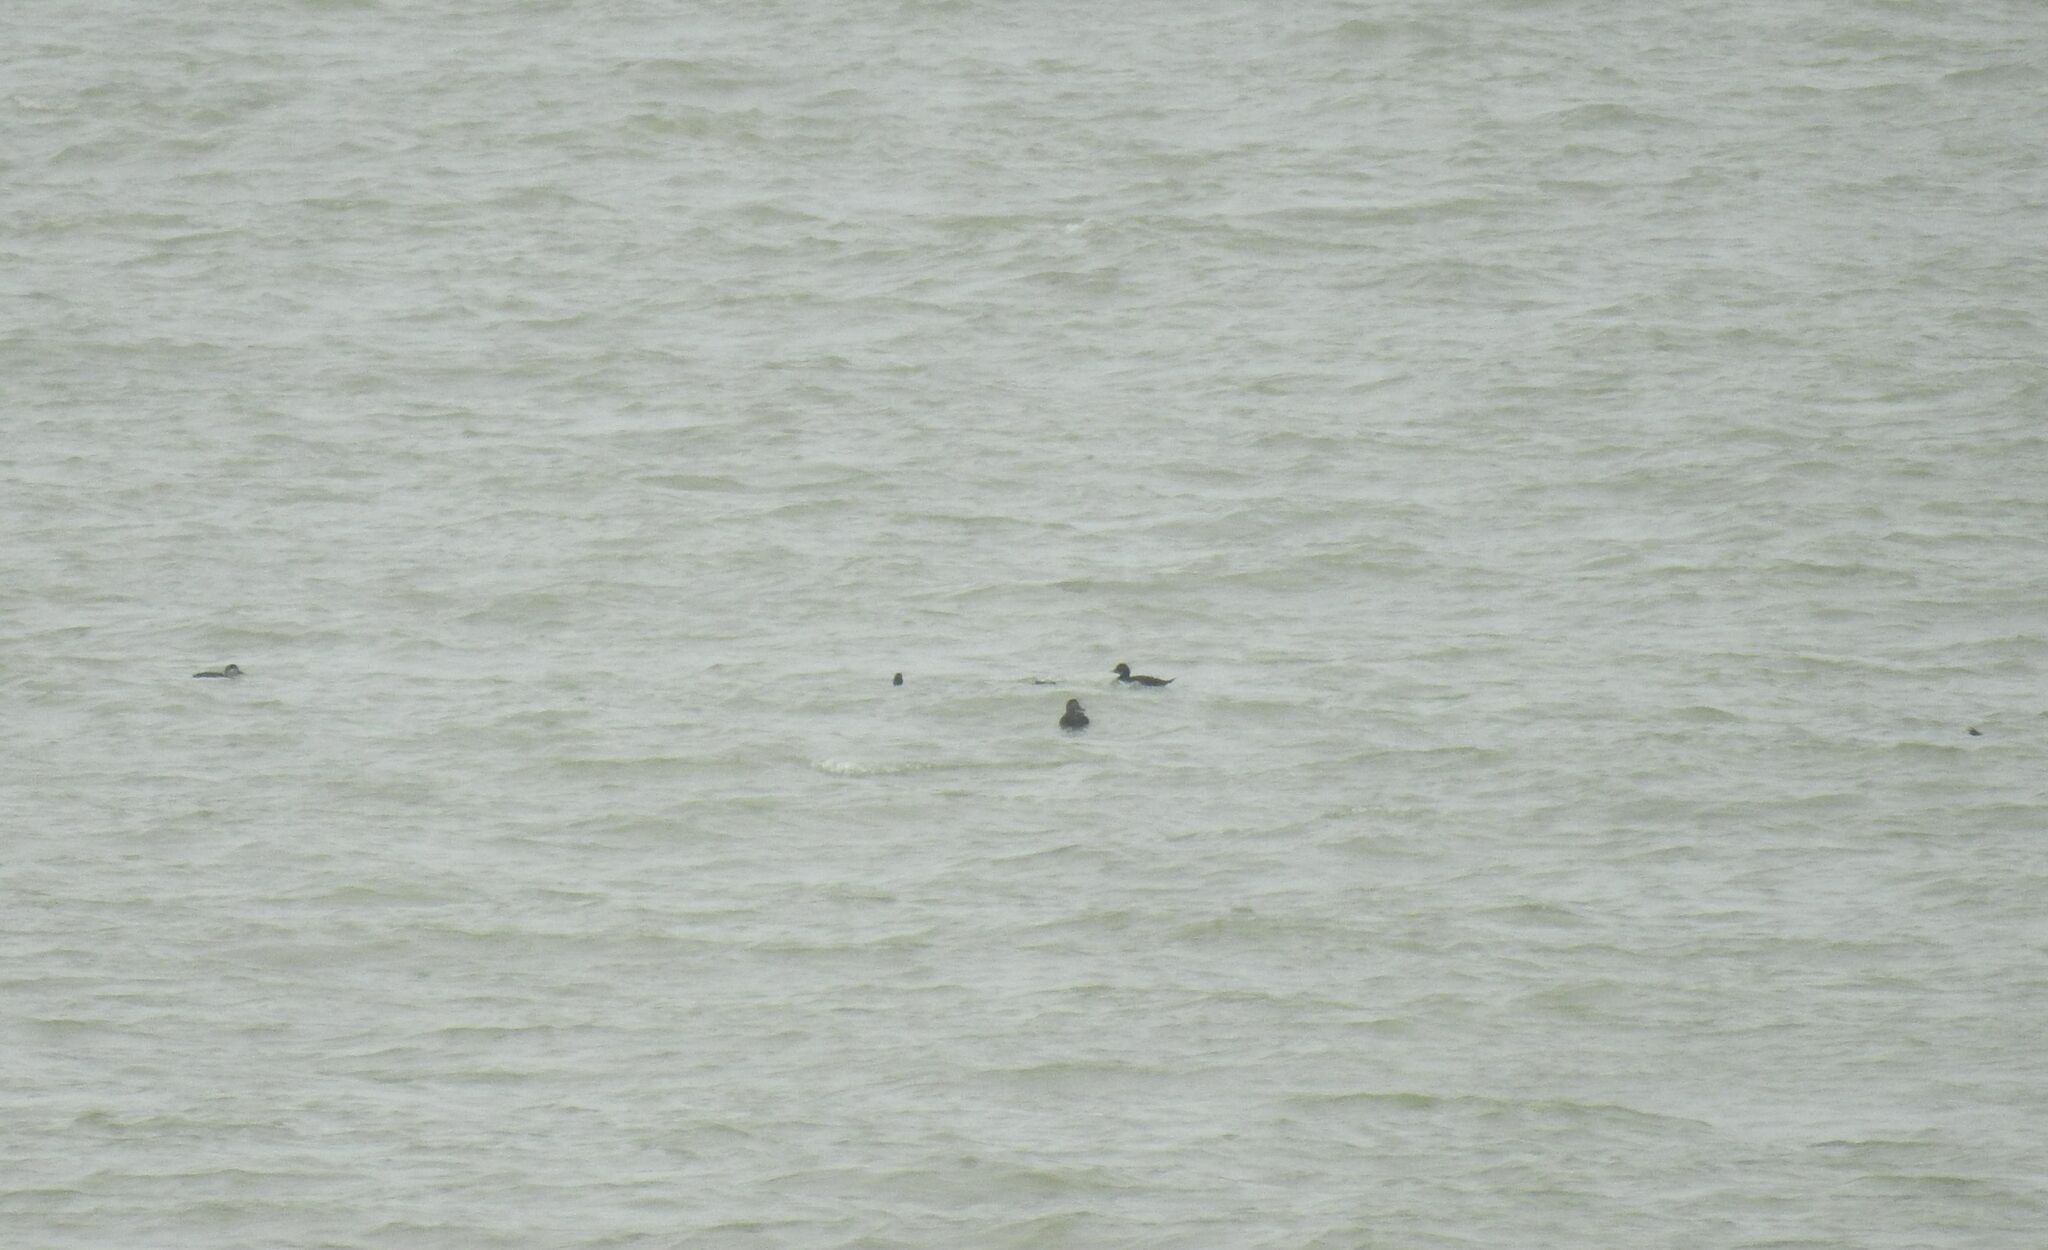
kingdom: Animalia
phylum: Chordata
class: Aves
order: Anseriformes
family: Anatidae
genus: Melanitta
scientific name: Melanitta nigra
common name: Common scoter
